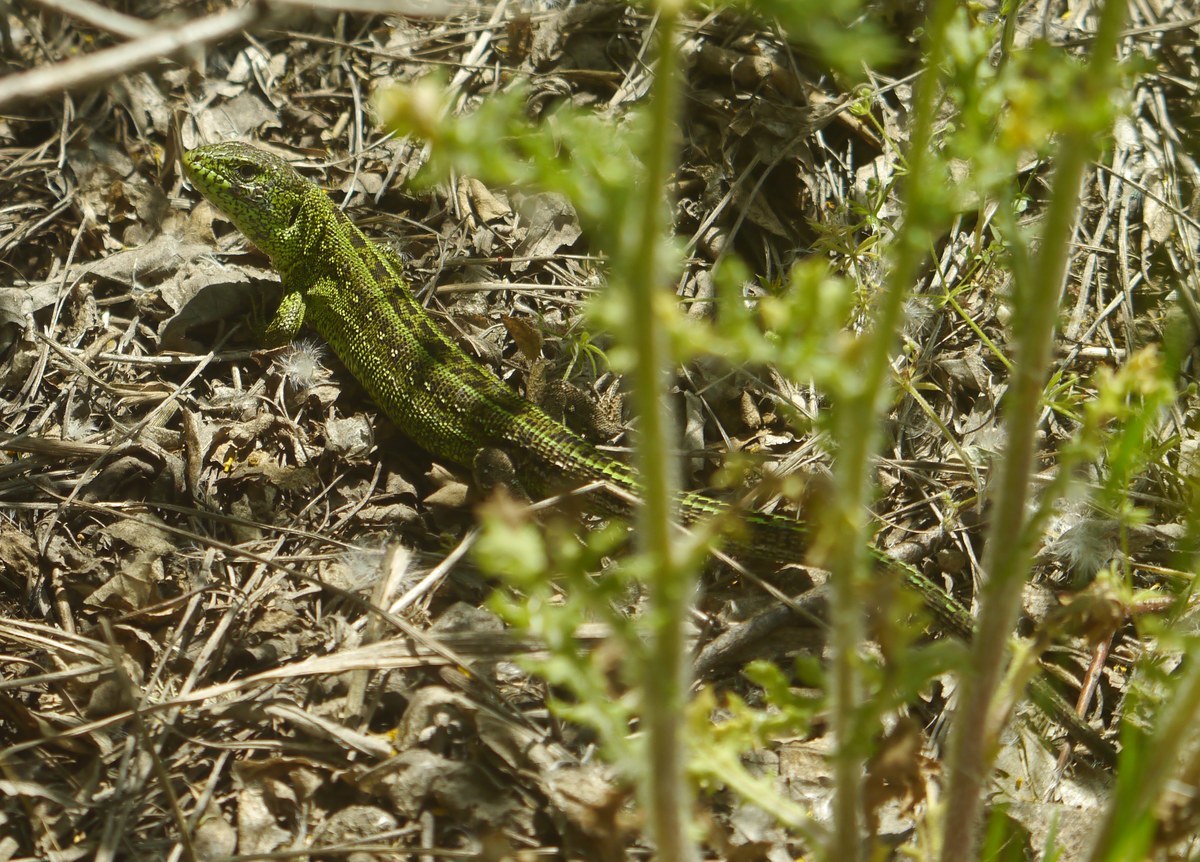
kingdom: Animalia
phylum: Chordata
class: Squamata
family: Lacertidae
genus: Lacerta
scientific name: Lacerta agilis
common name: Sand lizard
